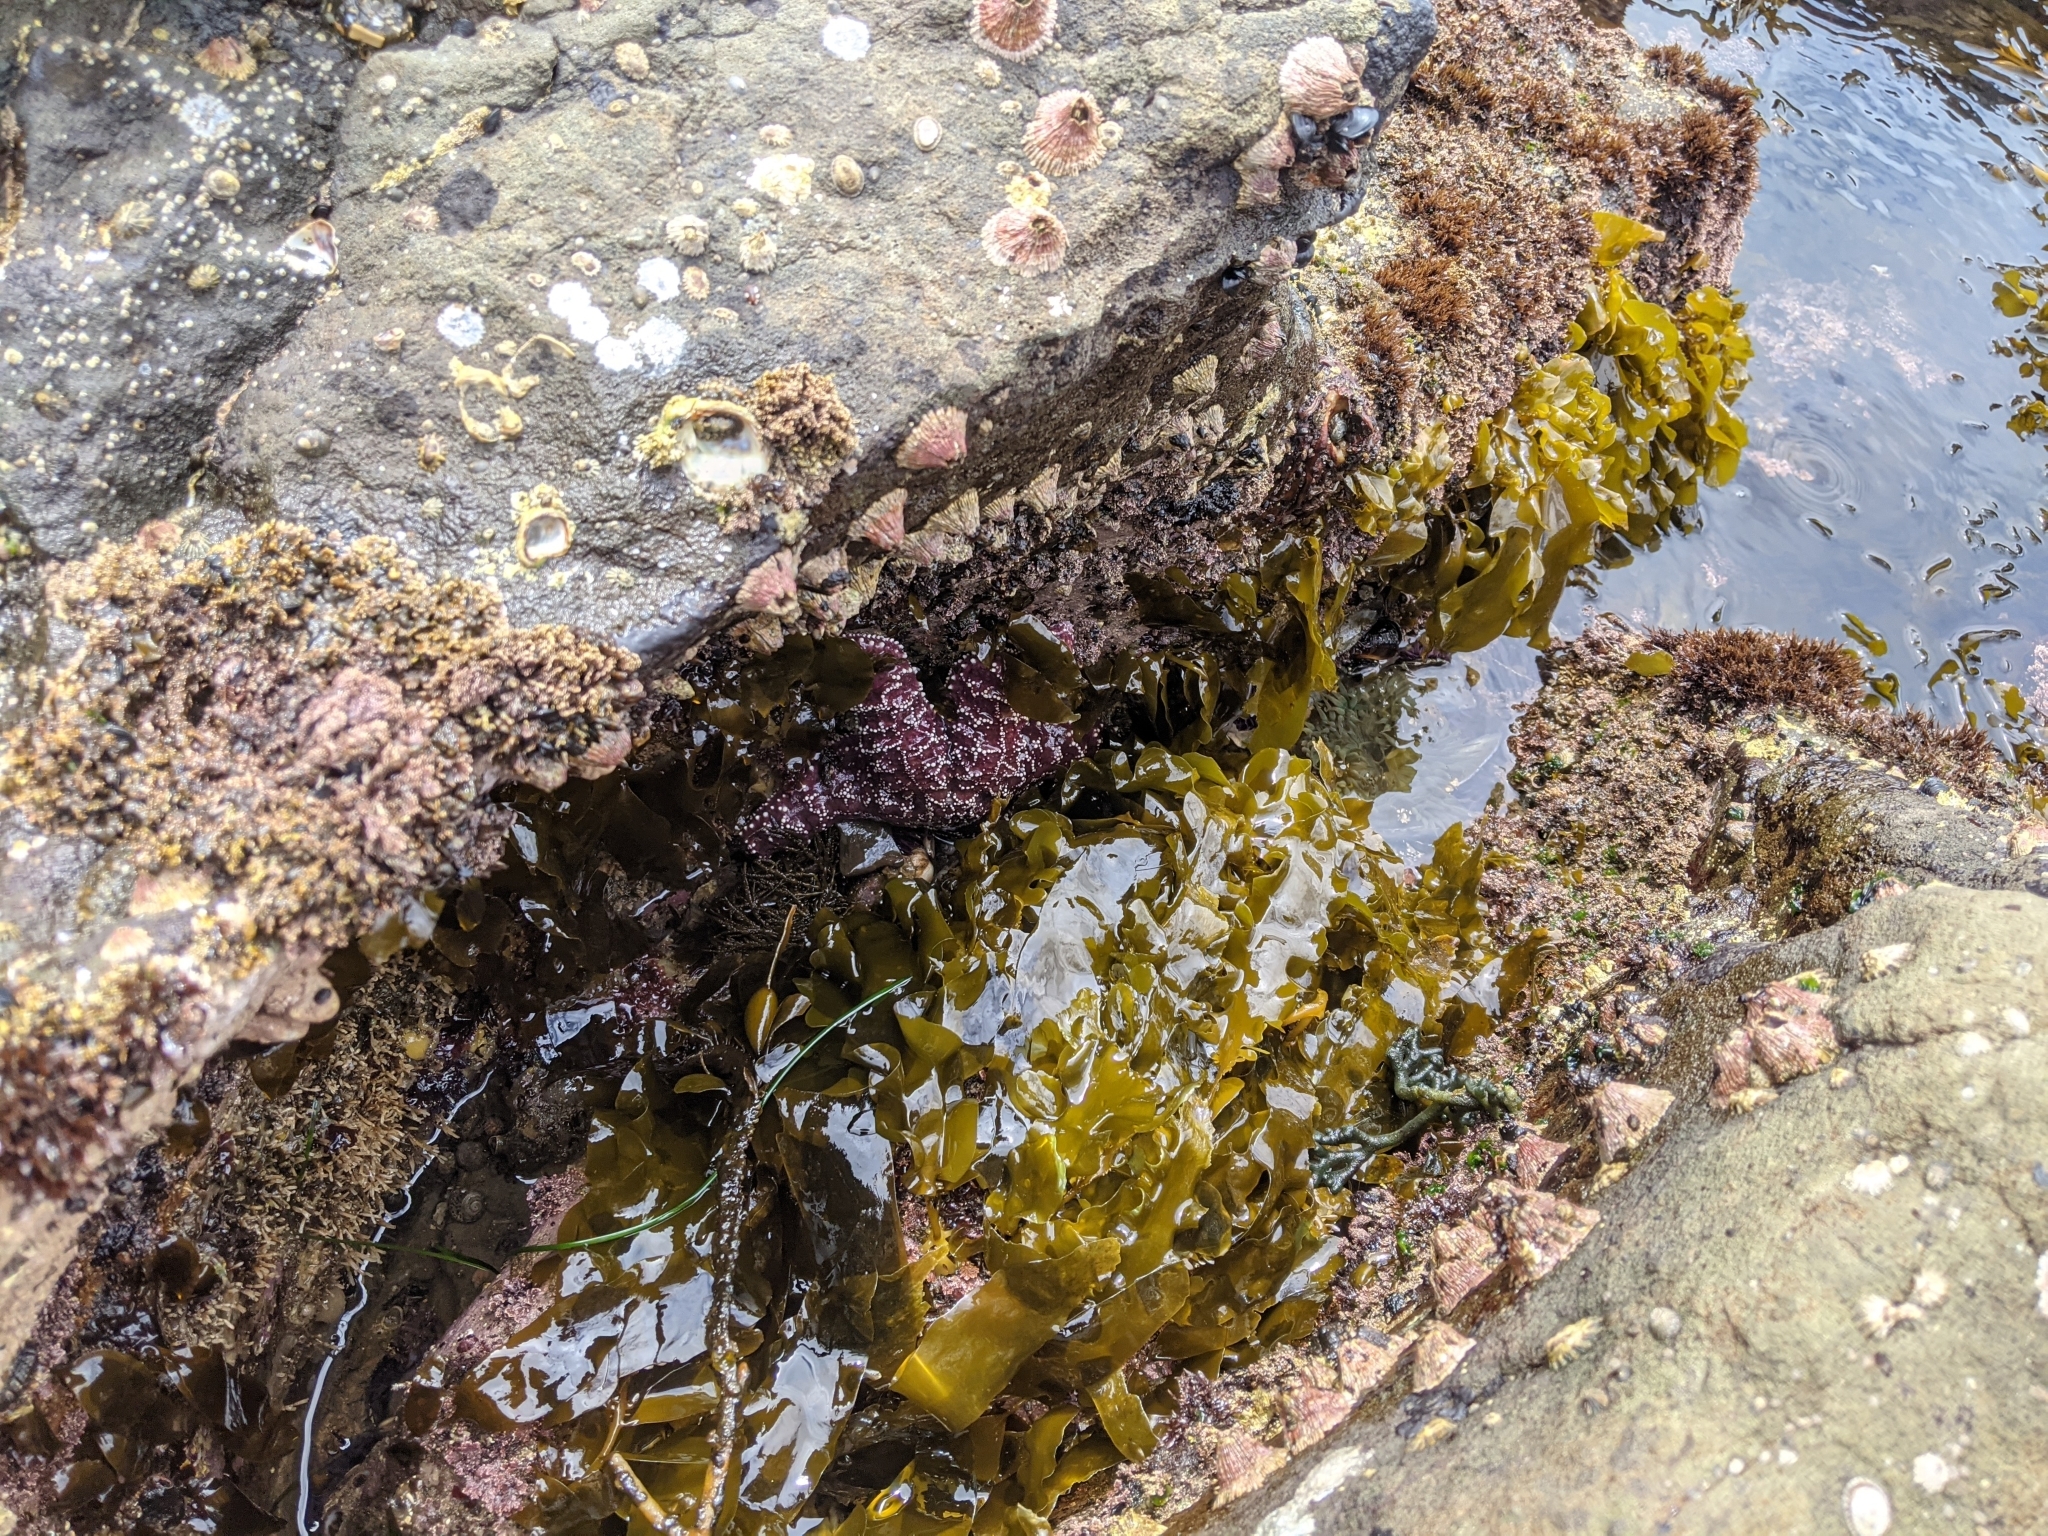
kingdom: Animalia
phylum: Echinodermata
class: Asteroidea
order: Forcipulatida
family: Asteriidae
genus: Pisaster
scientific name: Pisaster ochraceus
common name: Ochre stars
